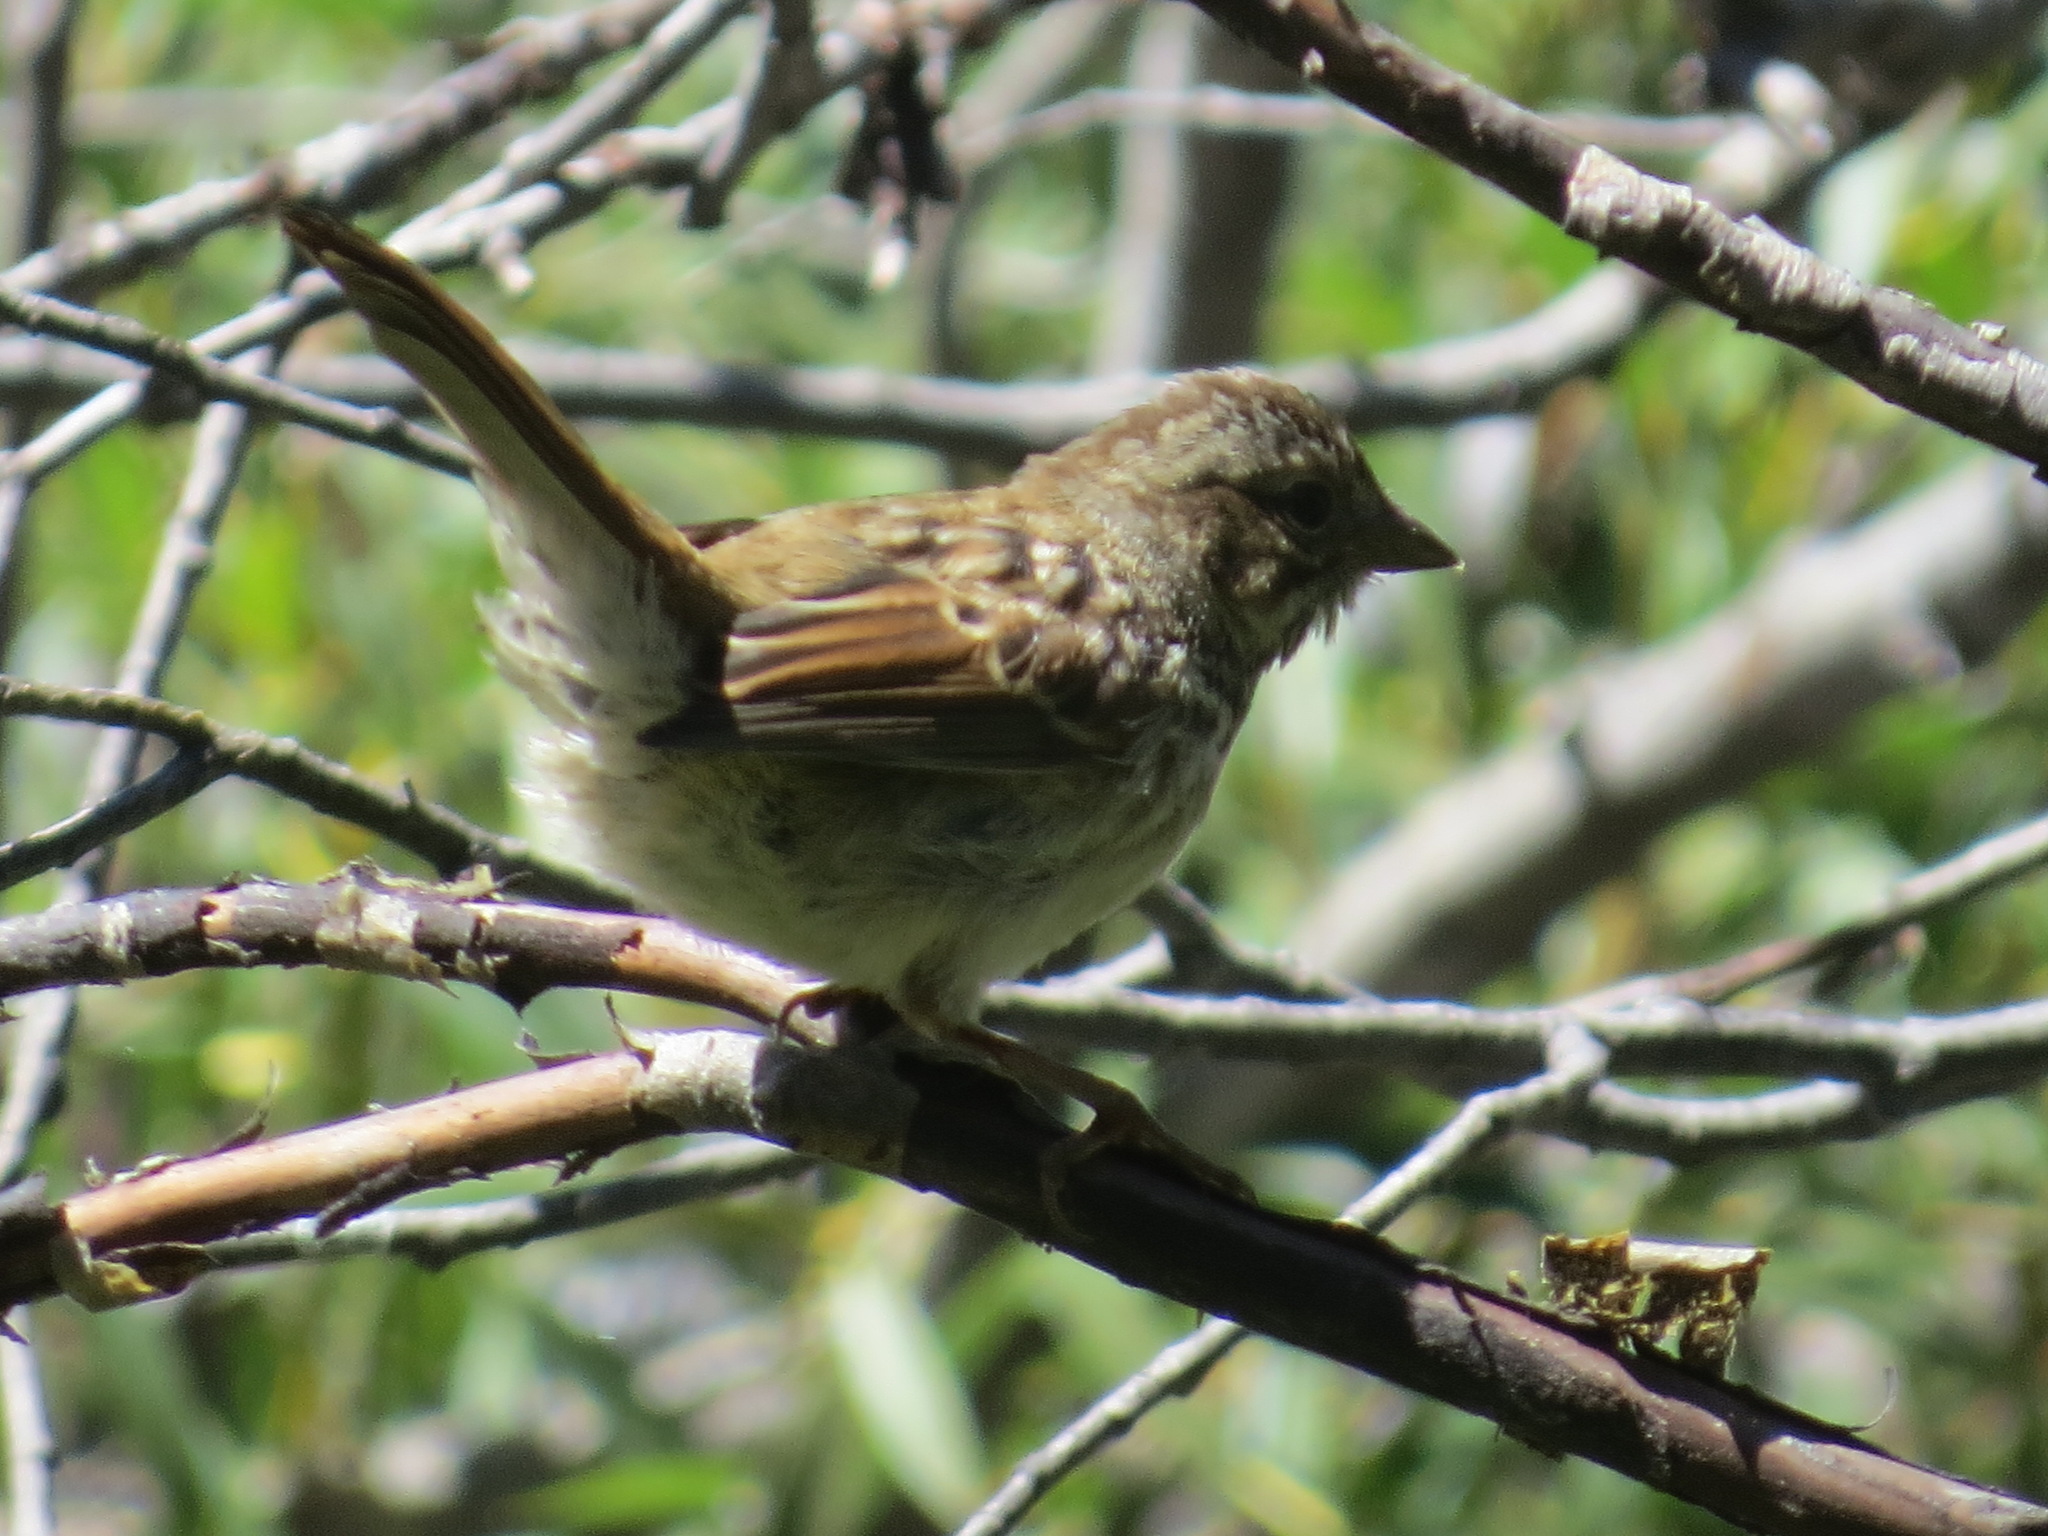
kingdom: Animalia
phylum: Chordata
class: Aves
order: Passeriformes
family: Passerellidae
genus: Melospiza
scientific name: Melospiza melodia
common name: Song sparrow
